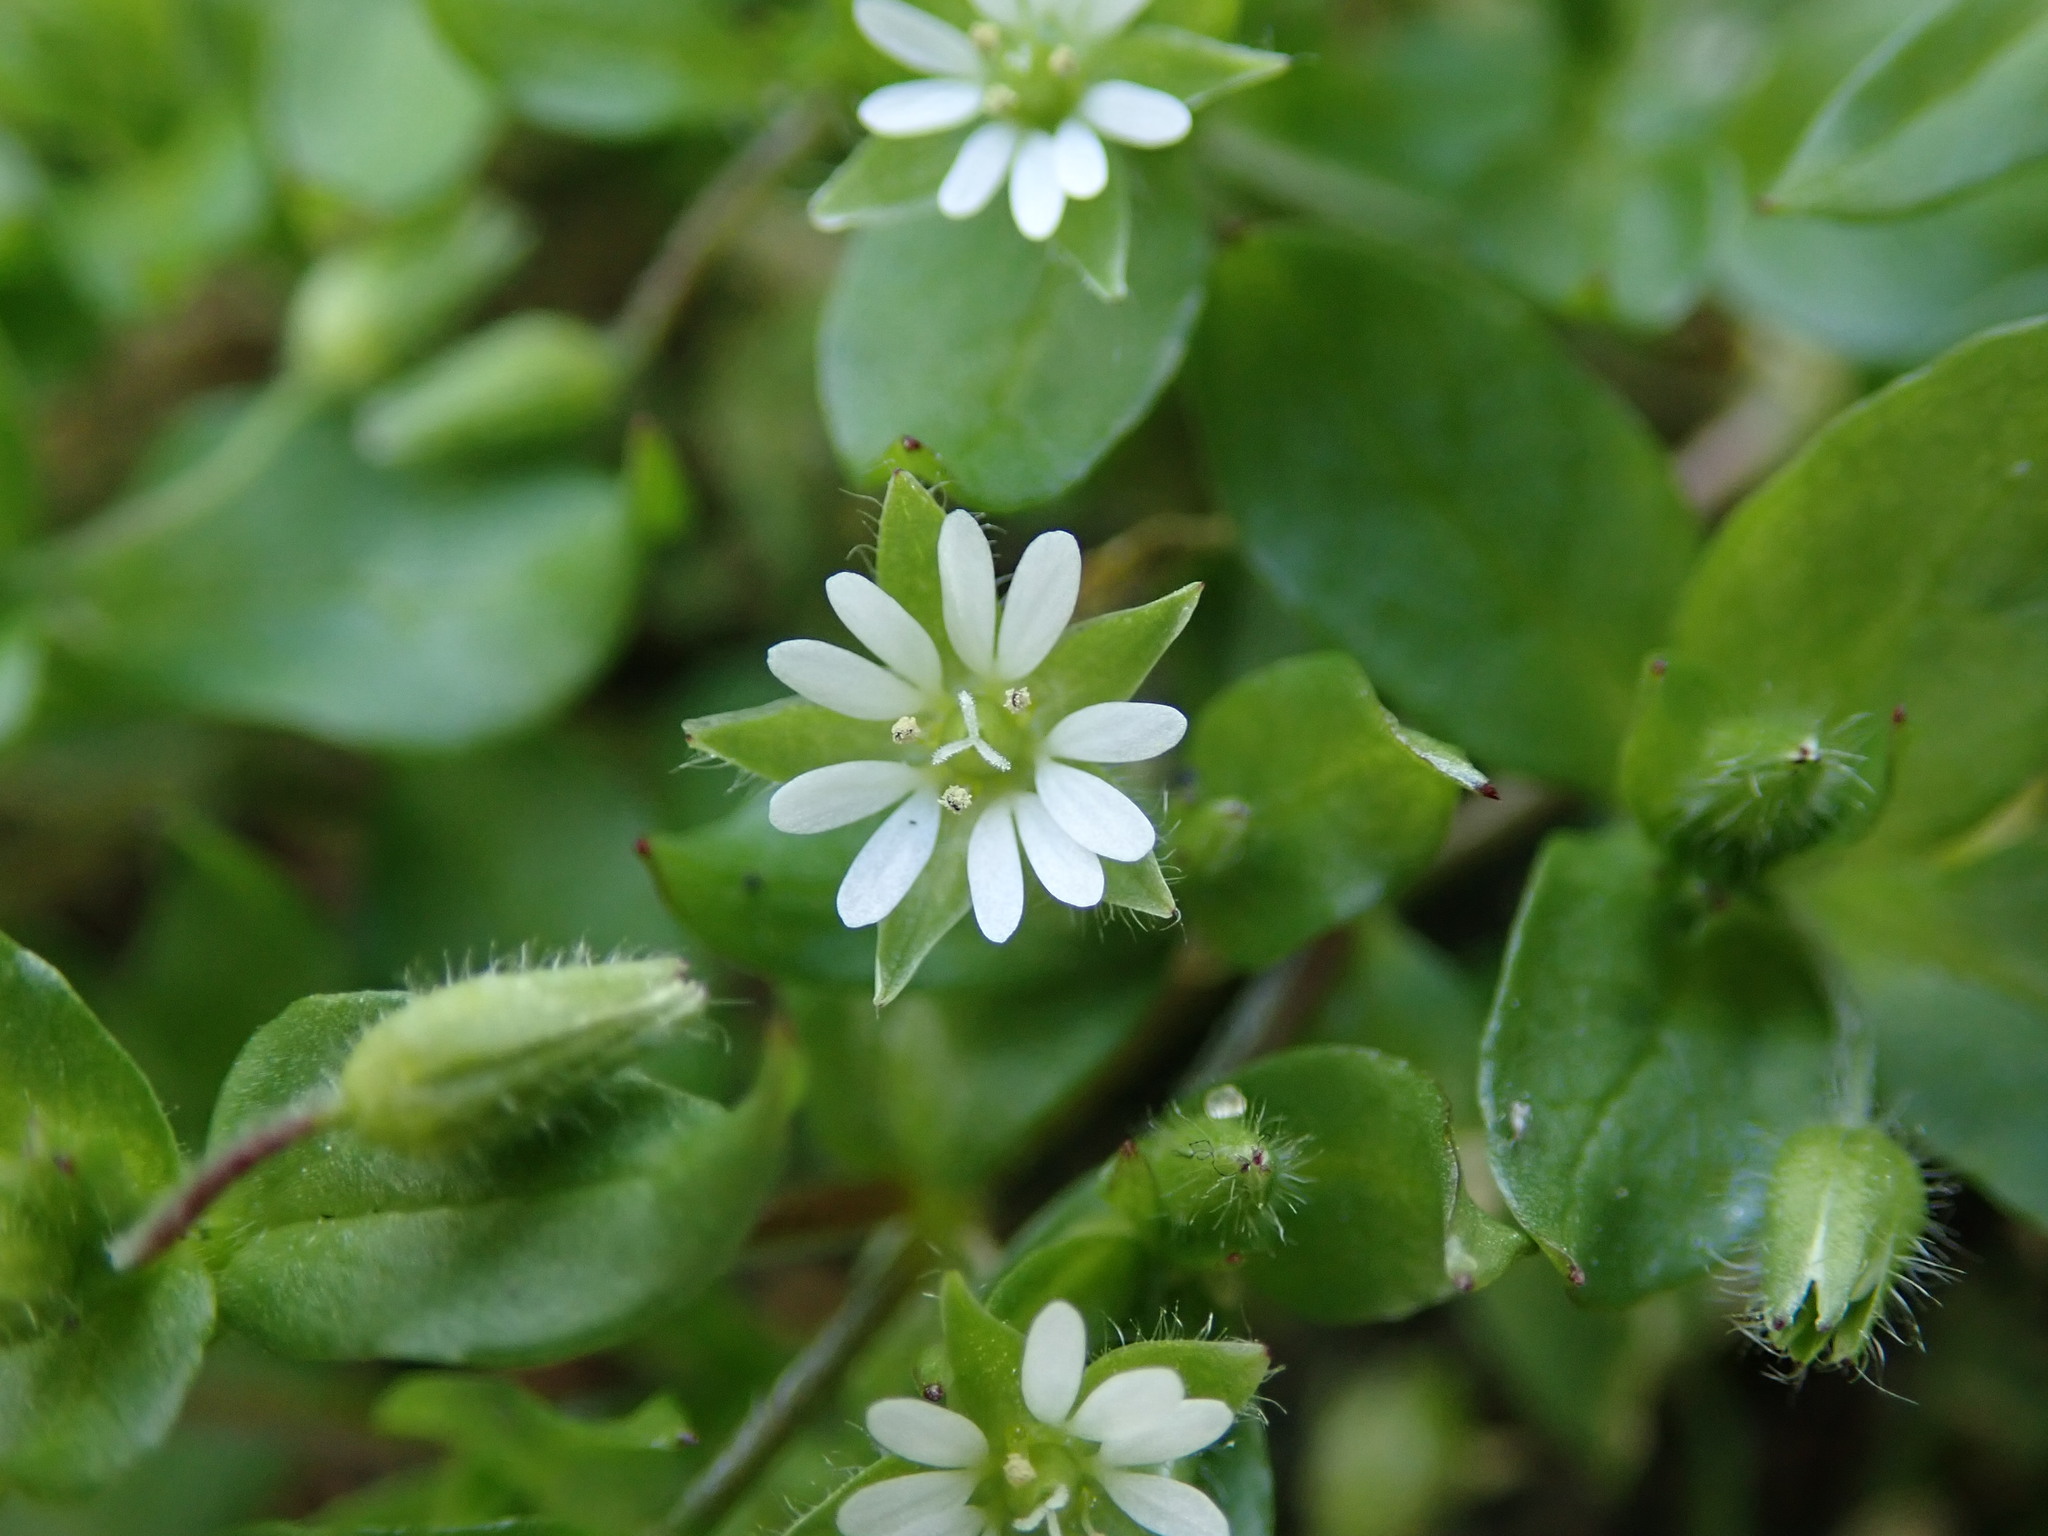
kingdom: Plantae
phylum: Tracheophyta
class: Magnoliopsida
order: Caryophyllales
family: Caryophyllaceae
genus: Stellaria
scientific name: Stellaria media
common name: Common chickweed
